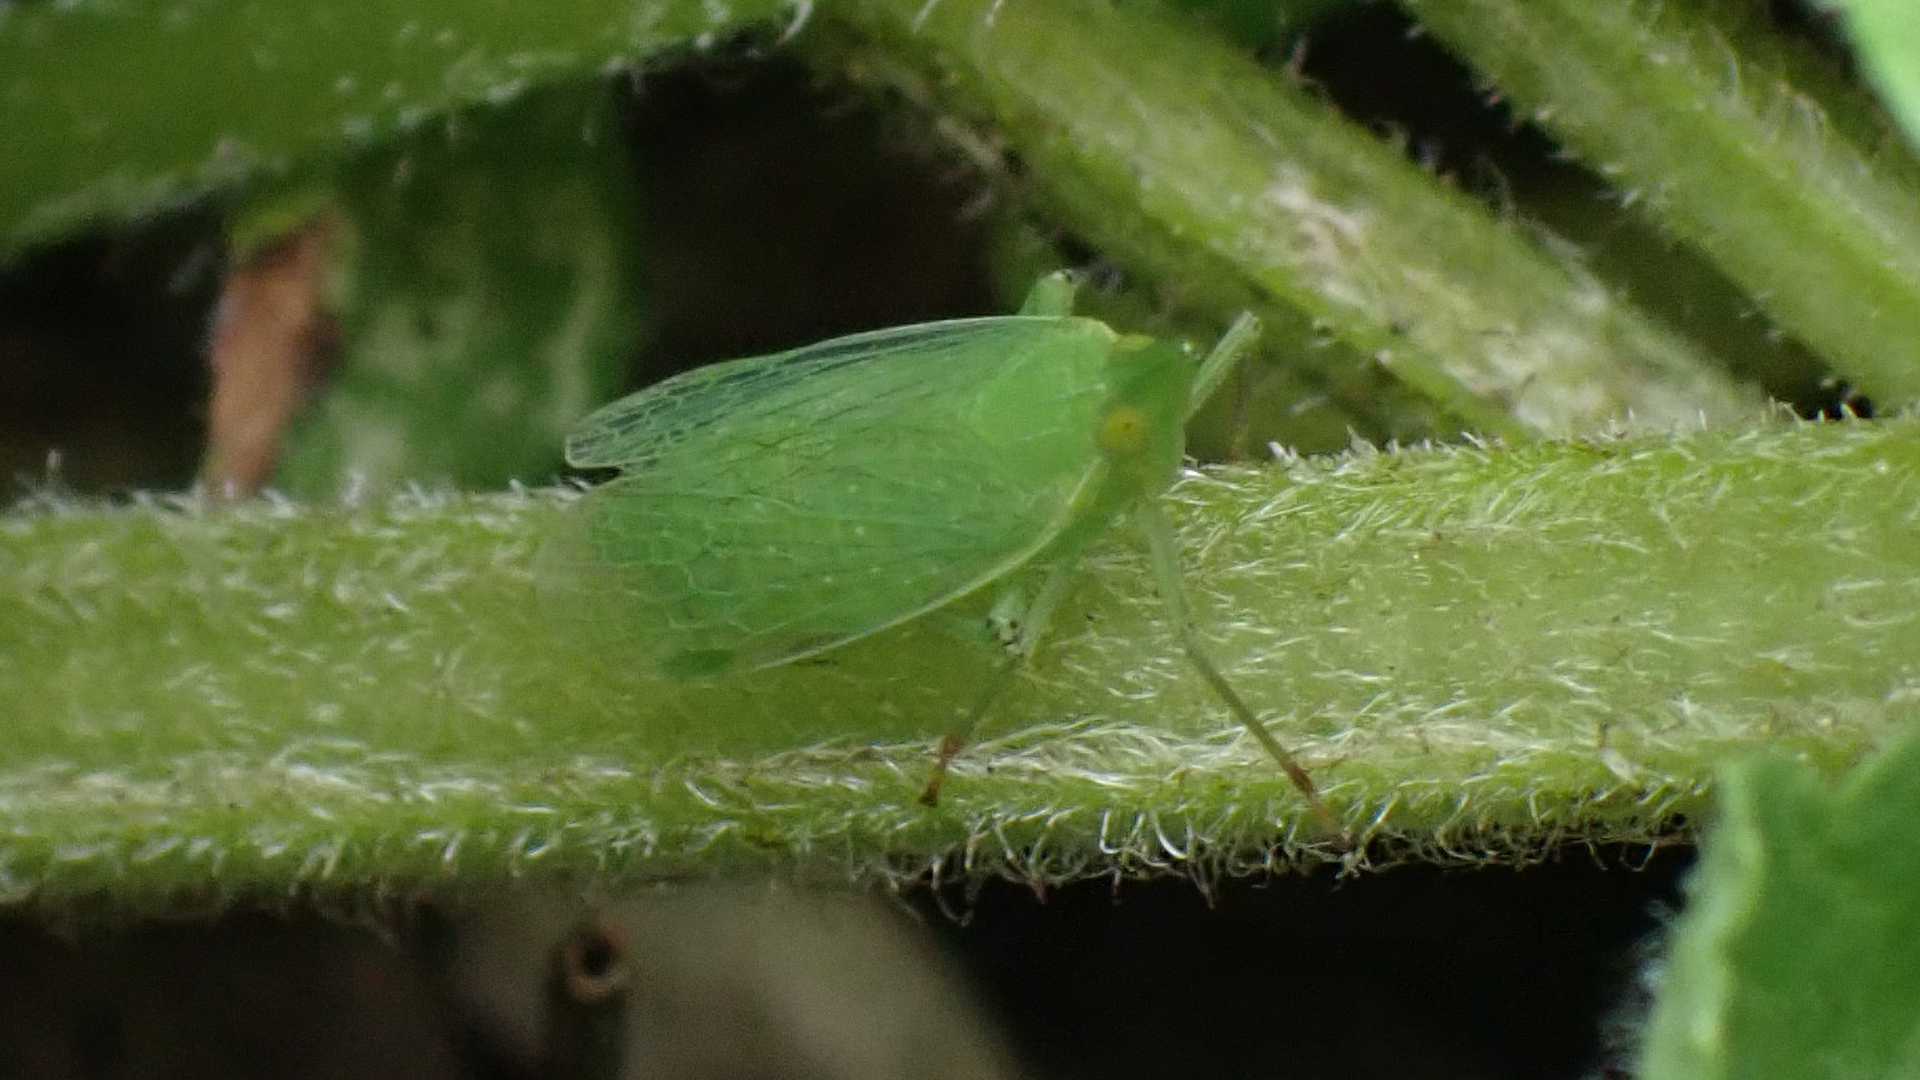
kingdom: Animalia
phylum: Arthropoda
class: Insecta
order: Hemiptera
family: Dictyopharidae
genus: Dictyophara
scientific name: Dictyophara europaea
